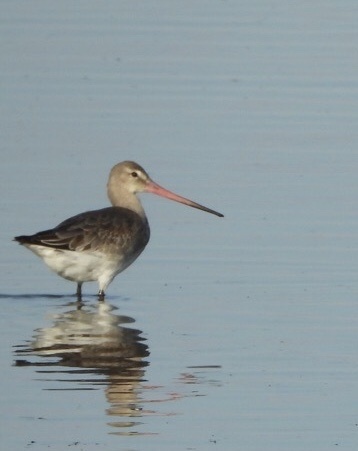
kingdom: Animalia
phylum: Chordata
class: Aves
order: Charadriiformes
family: Scolopacidae
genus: Limosa
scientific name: Limosa limosa
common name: Black-tailed godwit
